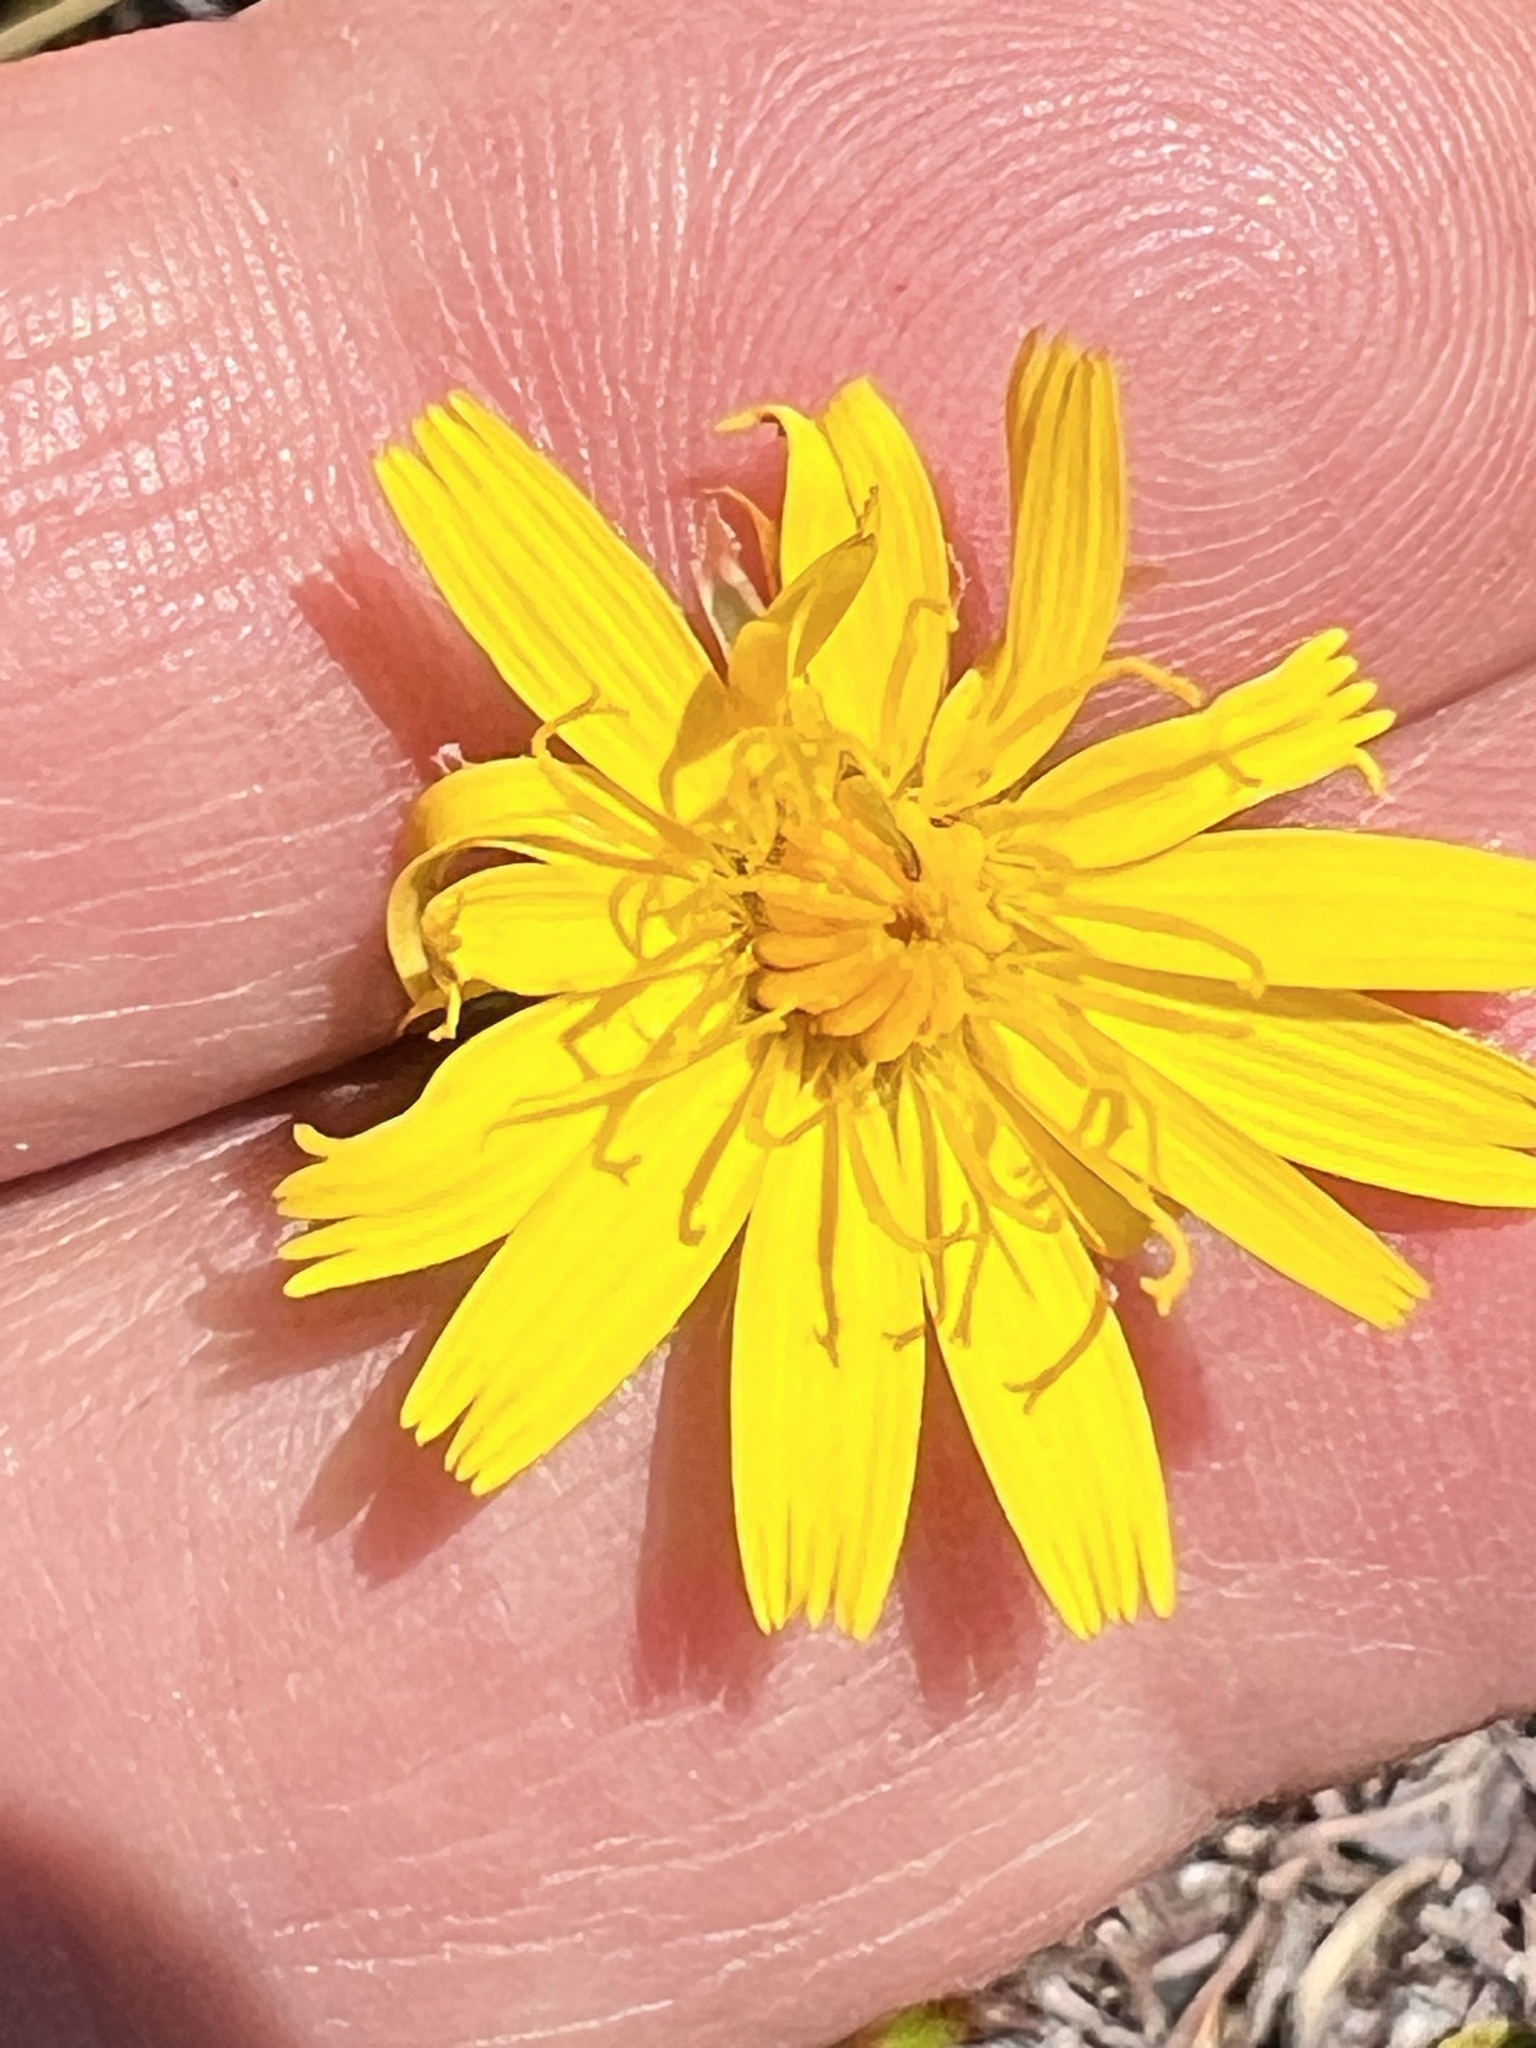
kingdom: Plantae
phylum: Tracheophyta
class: Magnoliopsida
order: Asterales
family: Asteraceae
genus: Hypochaeris
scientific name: Hypochaeris radicata
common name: Flatweed
